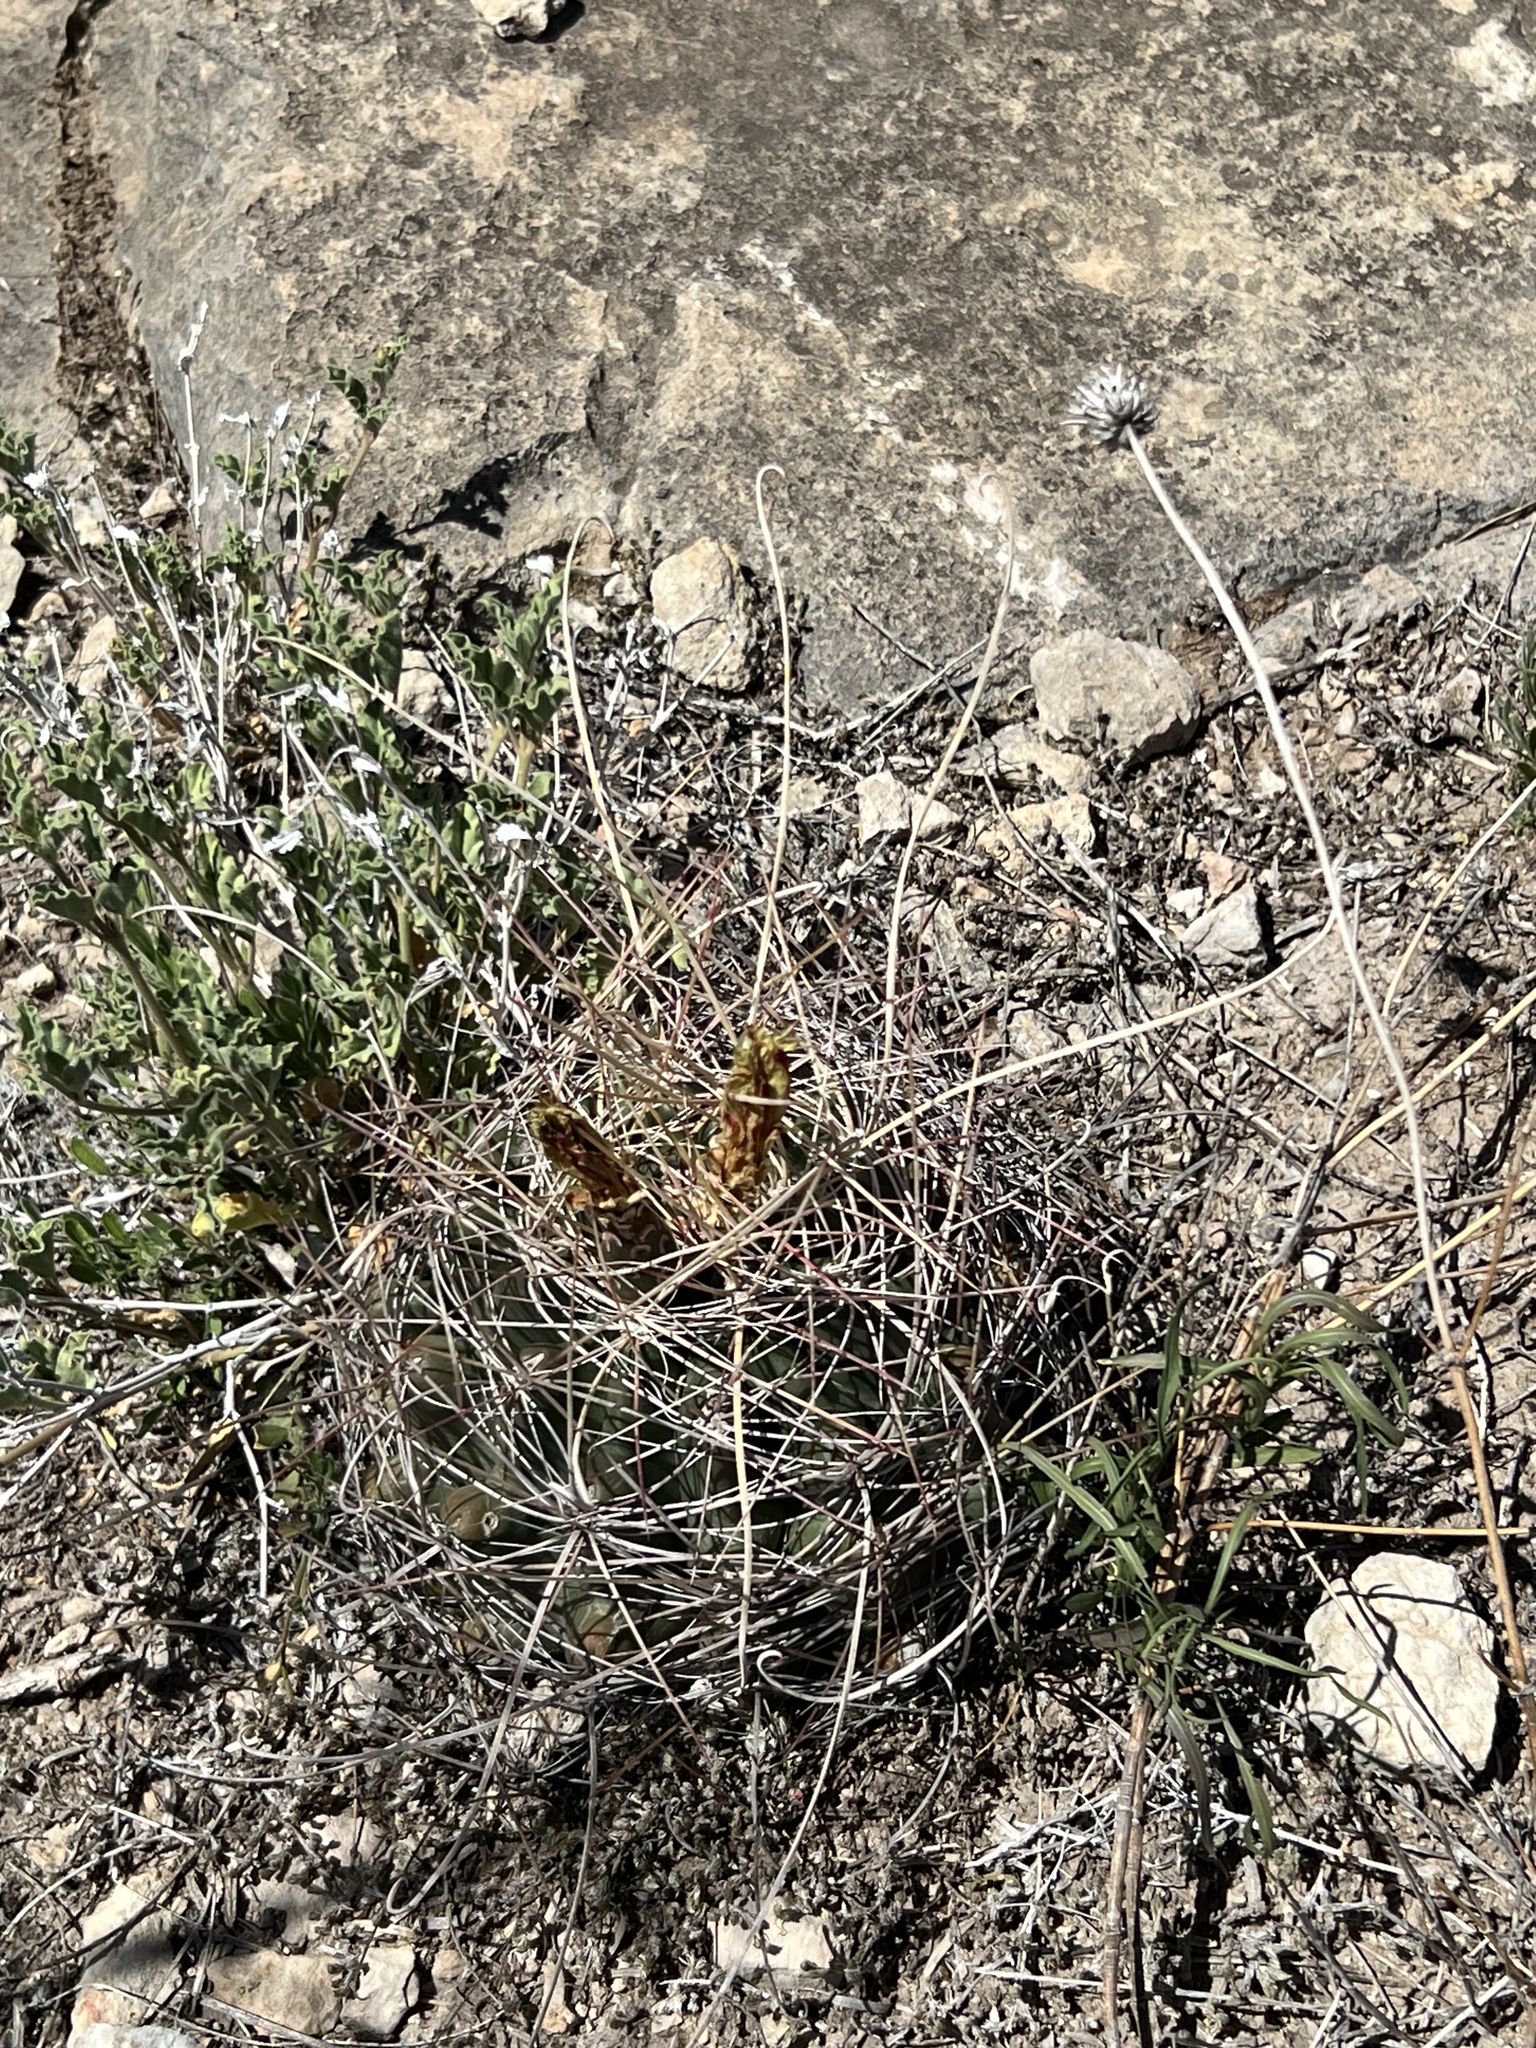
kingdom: Plantae
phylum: Tracheophyta
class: Magnoliopsida
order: Caryophyllales
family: Cactaceae
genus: Bisnaga
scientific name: Bisnaga hamatacantha
